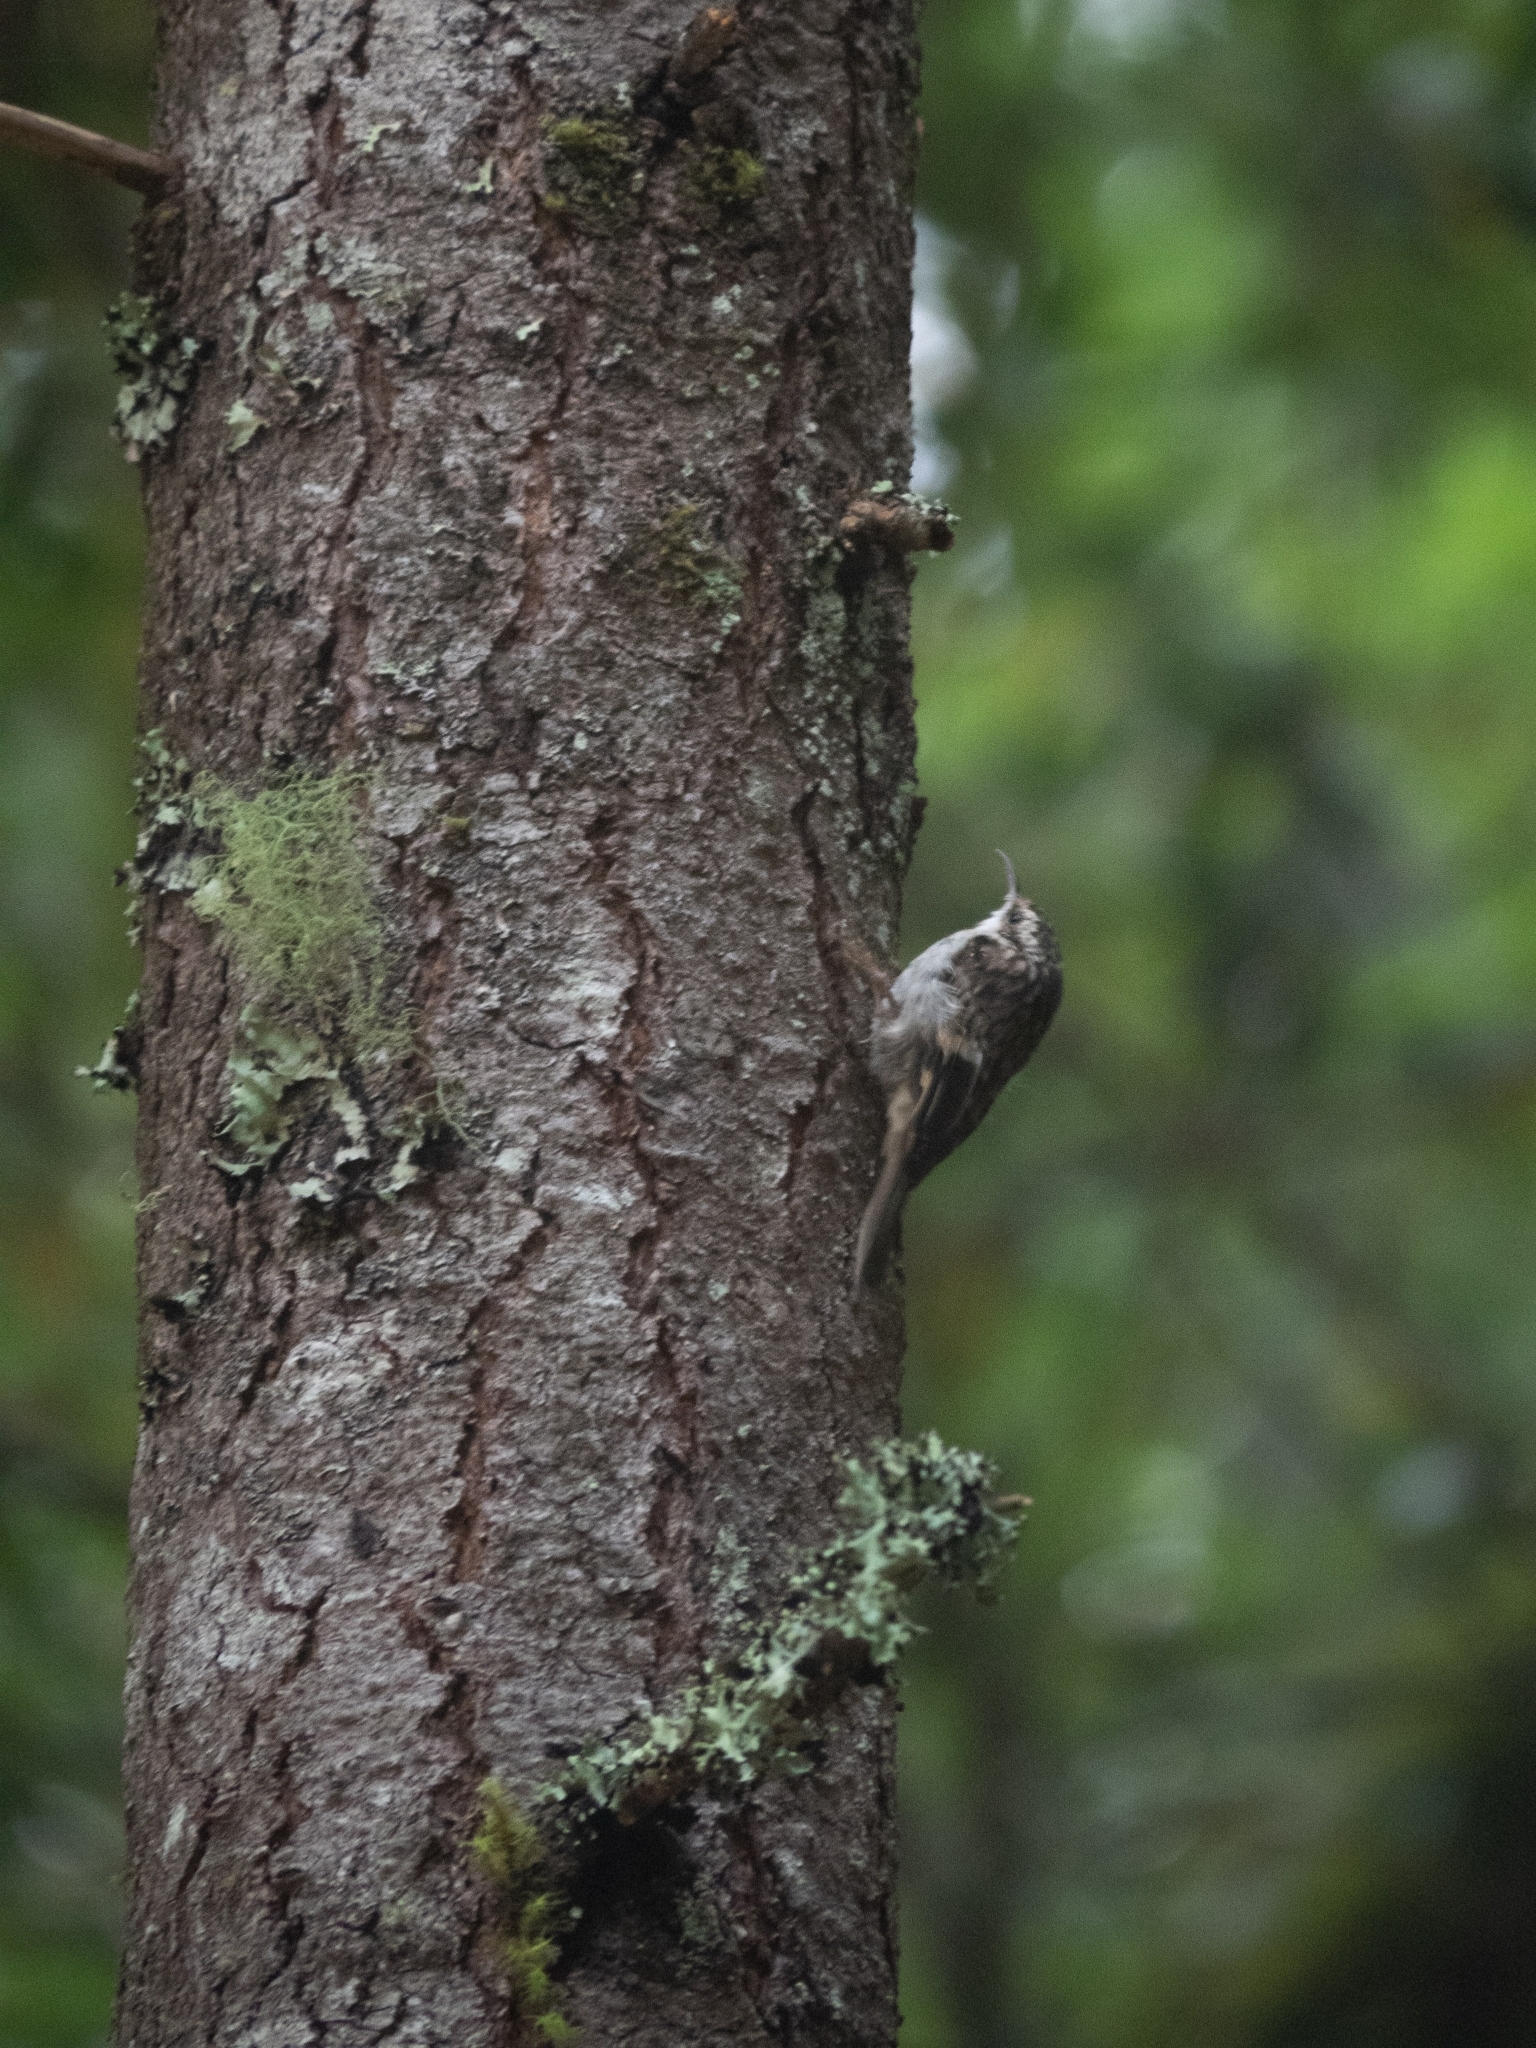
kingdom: Animalia
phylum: Chordata
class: Aves
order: Passeriformes
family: Certhiidae
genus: Certhia
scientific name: Certhia americana
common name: Brown creeper
